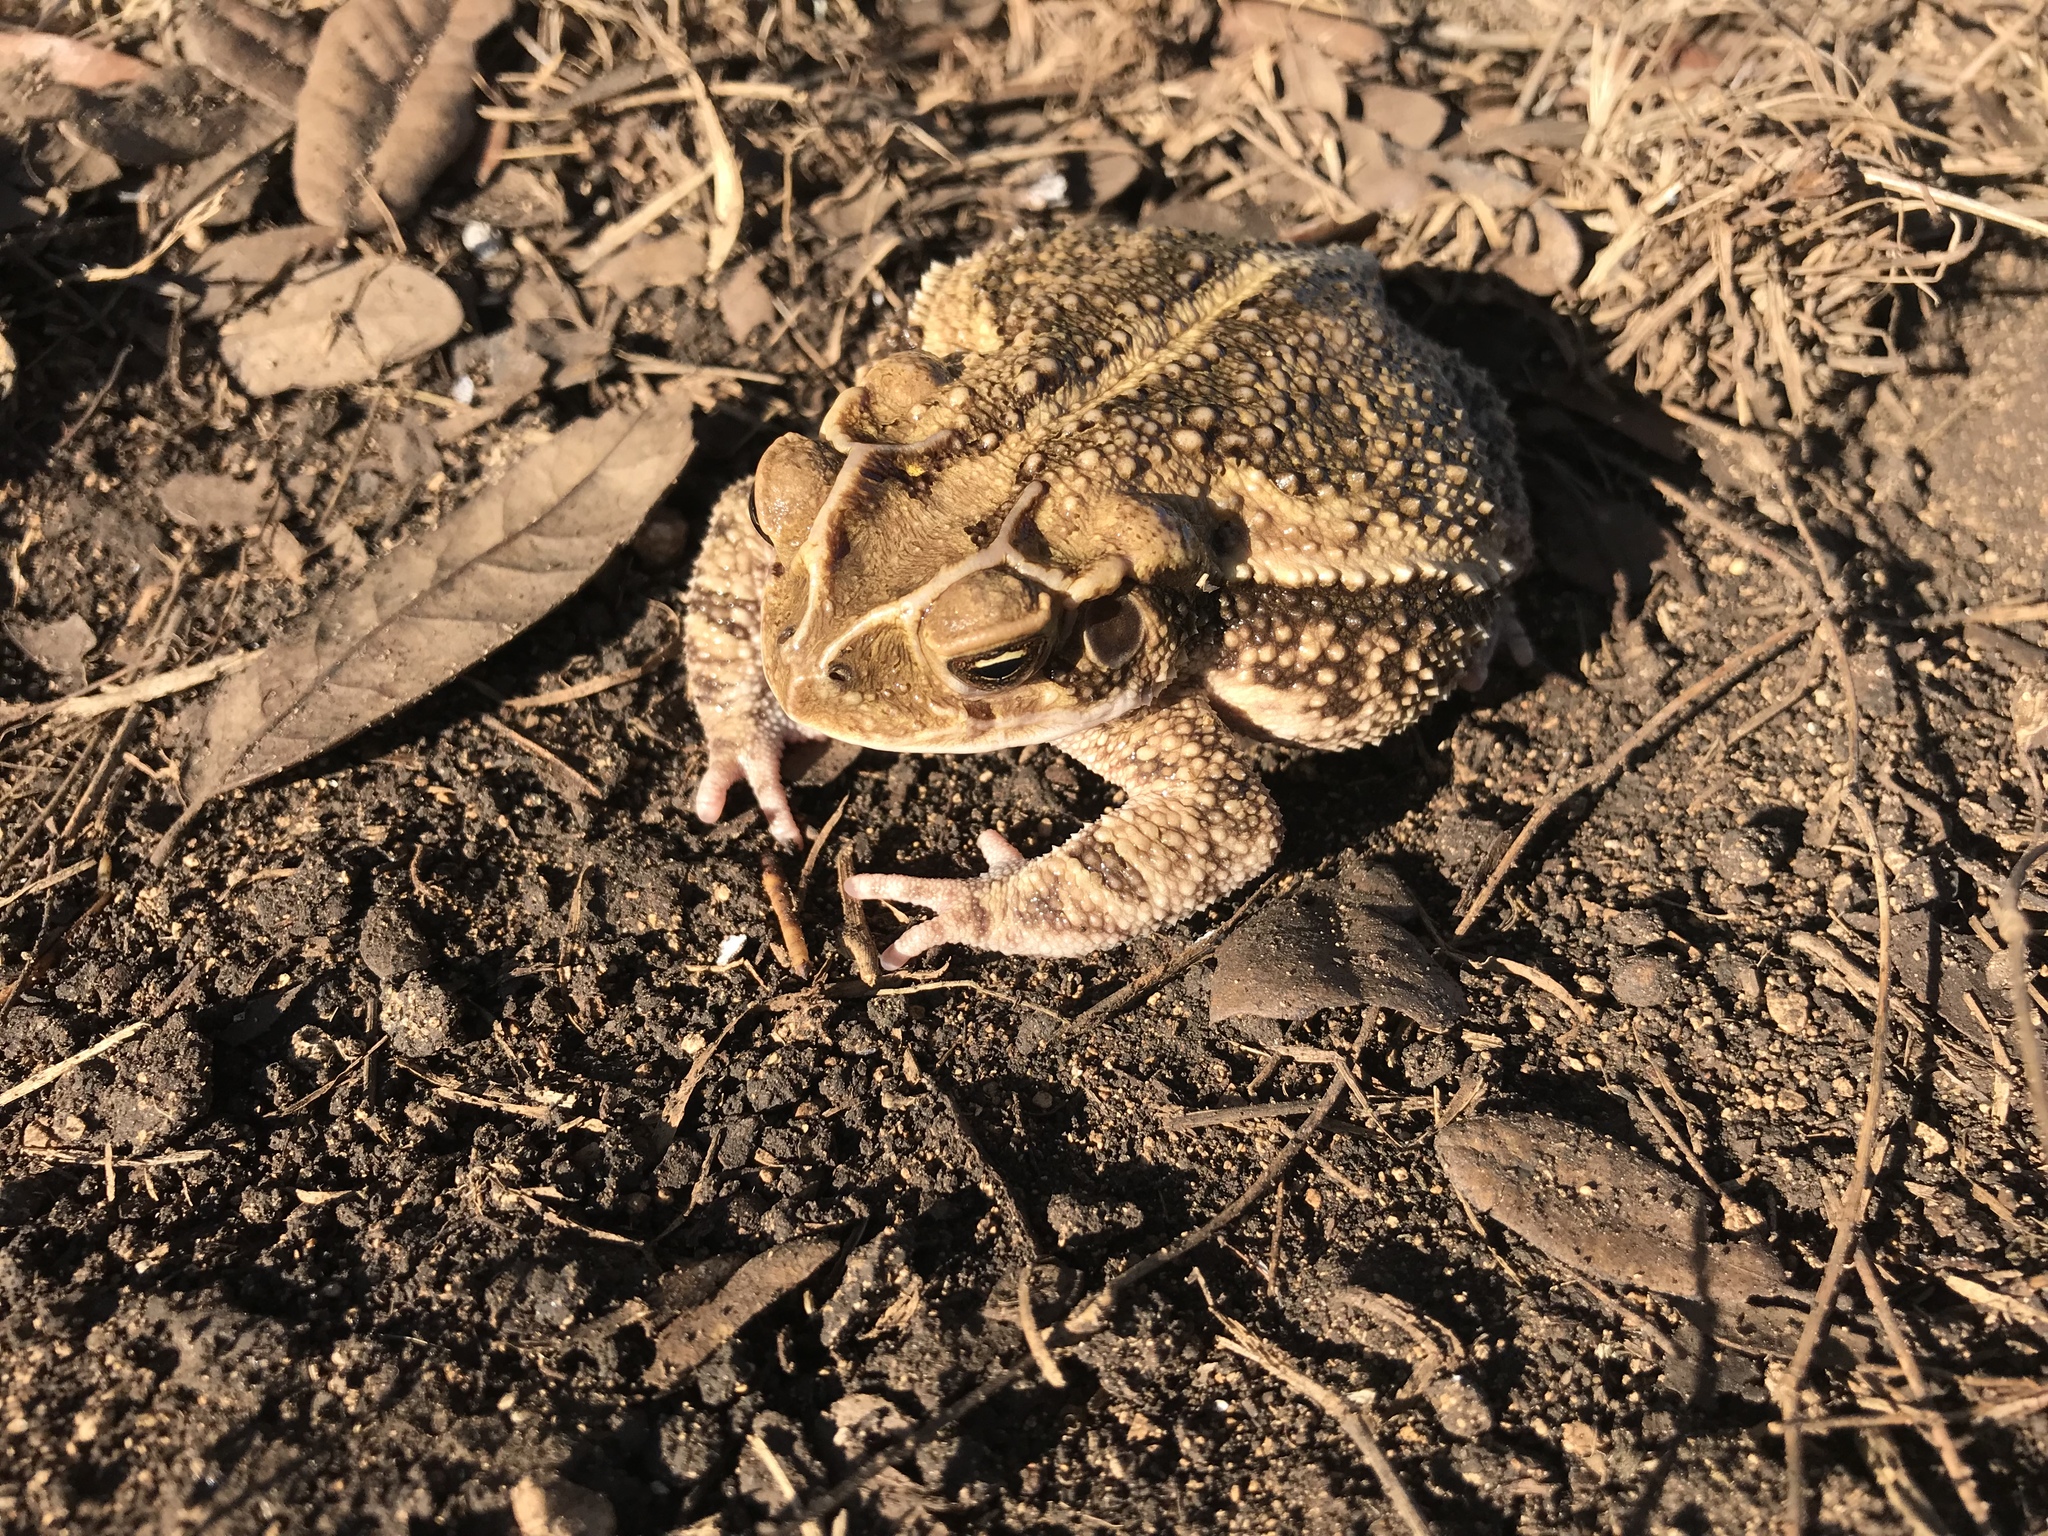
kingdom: Animalia
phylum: Chordata
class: Amphibia
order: Anura
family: Bufonidae
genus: Incilius
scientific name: Incilius nebulifer
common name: Gulf coast toad
